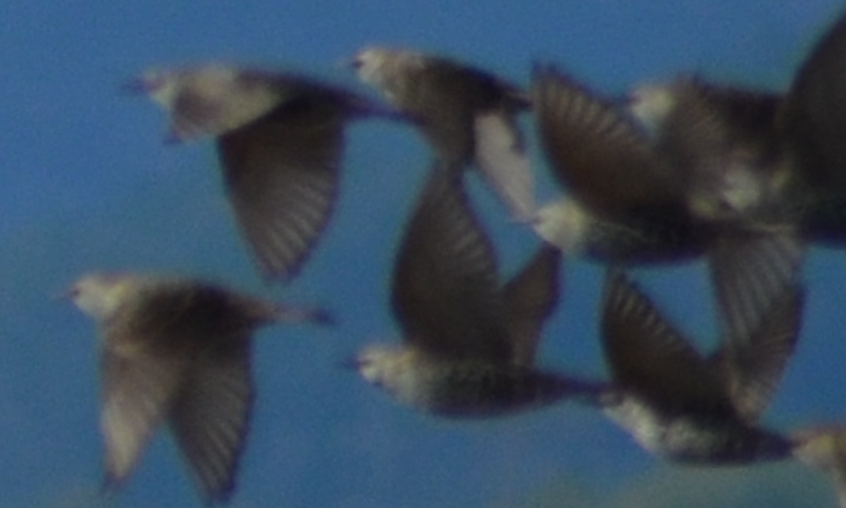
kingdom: Animalia
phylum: Chordata
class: Aves
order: Passeriformes
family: Sturnidae
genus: Sturnus
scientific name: Sturnus vulgaris
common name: Common starling
